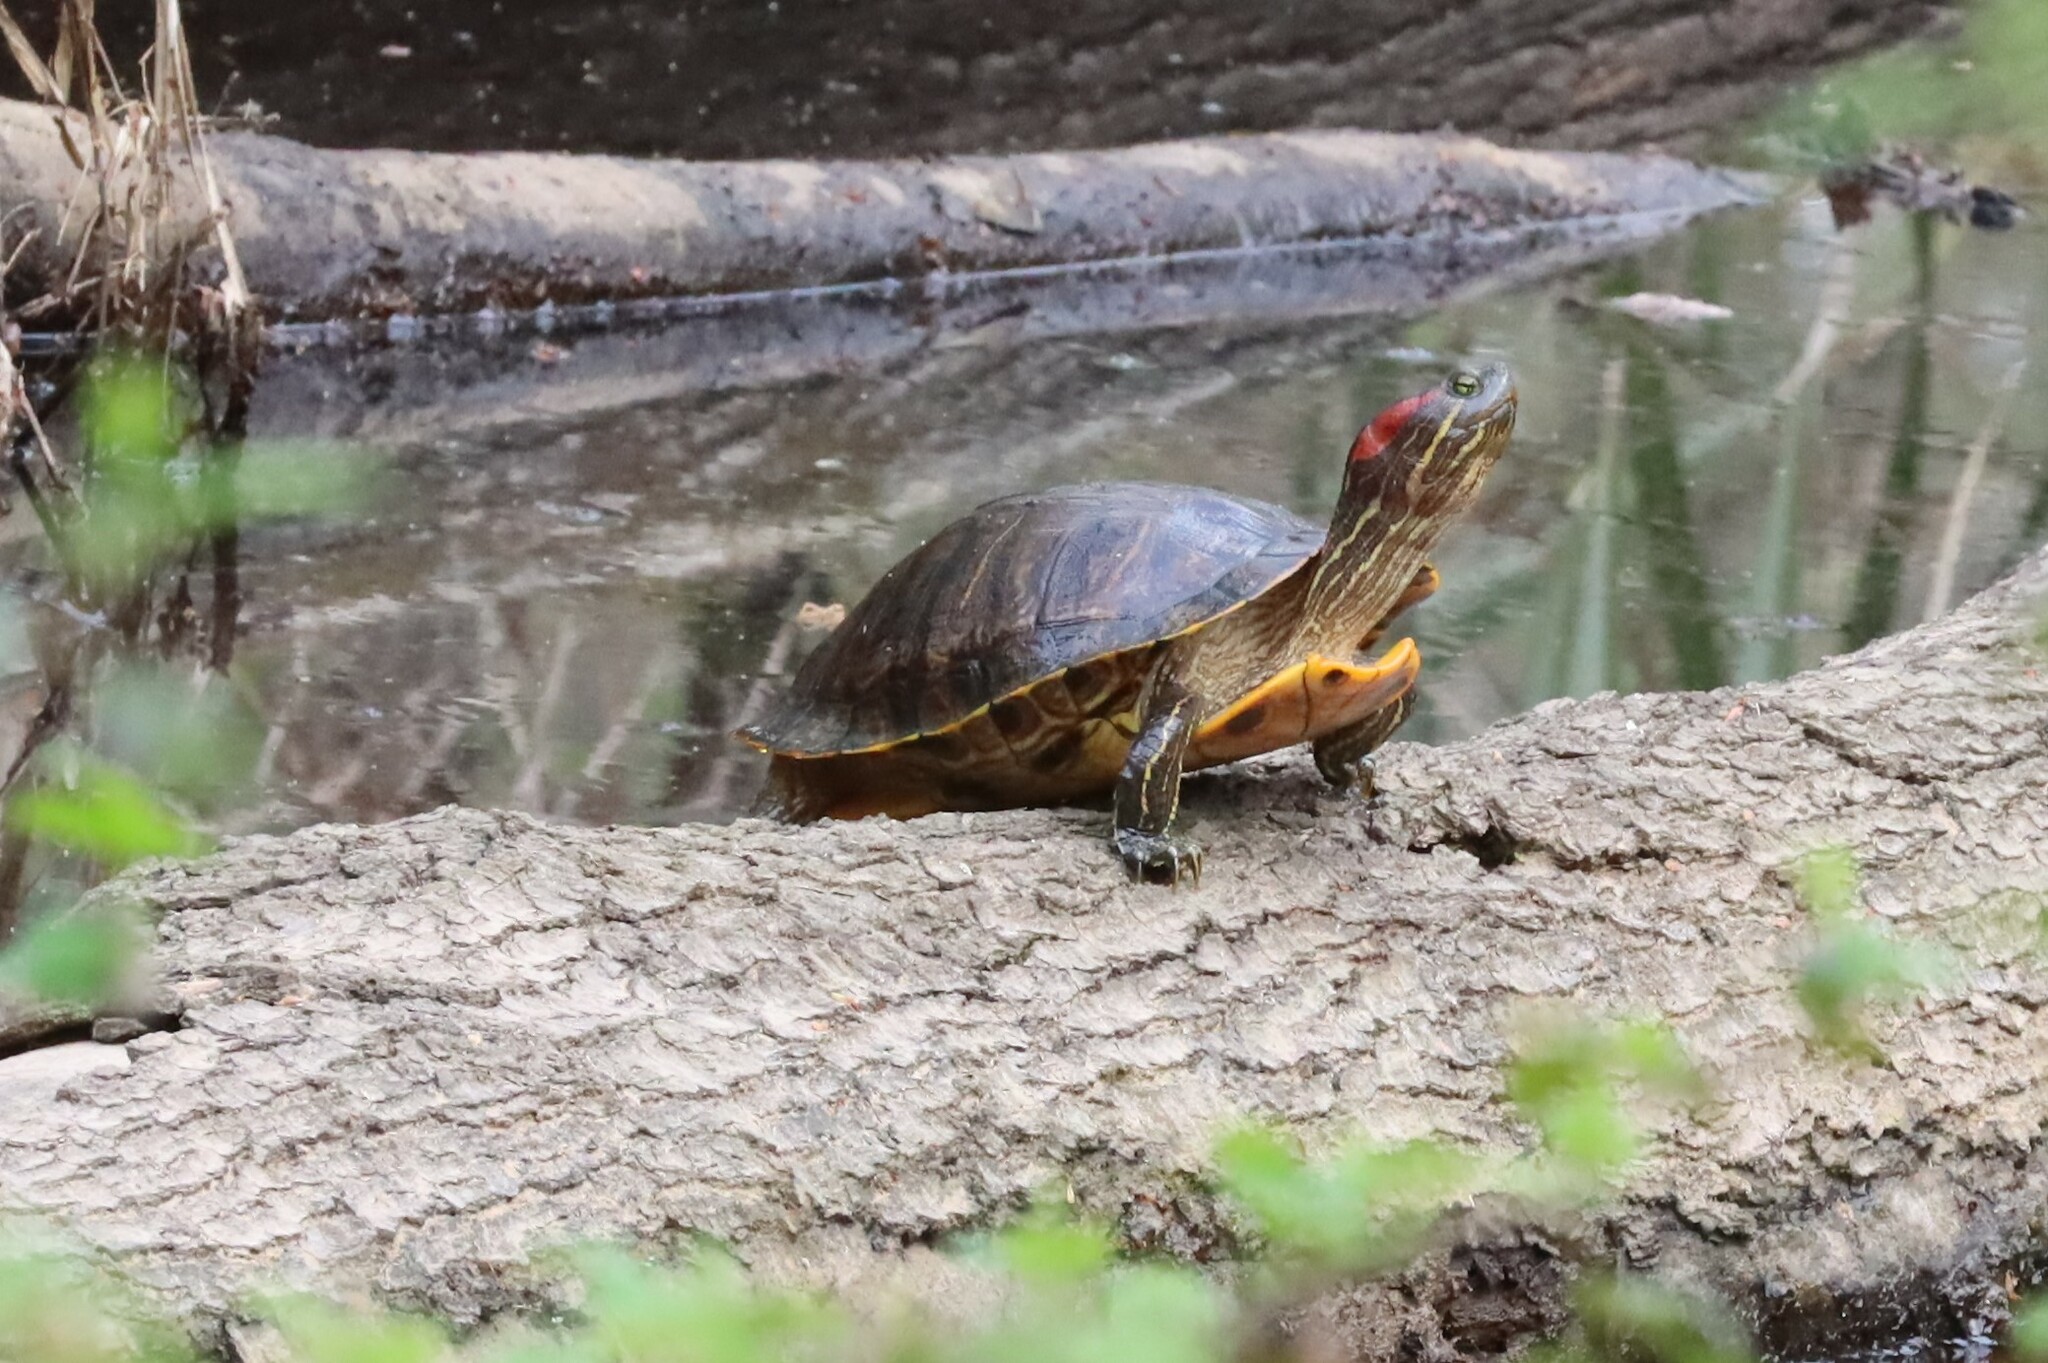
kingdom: Animalia
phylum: Chordata
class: Testudines
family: Emydidae
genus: Trachemys
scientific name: Trachemys scripta
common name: Slider
